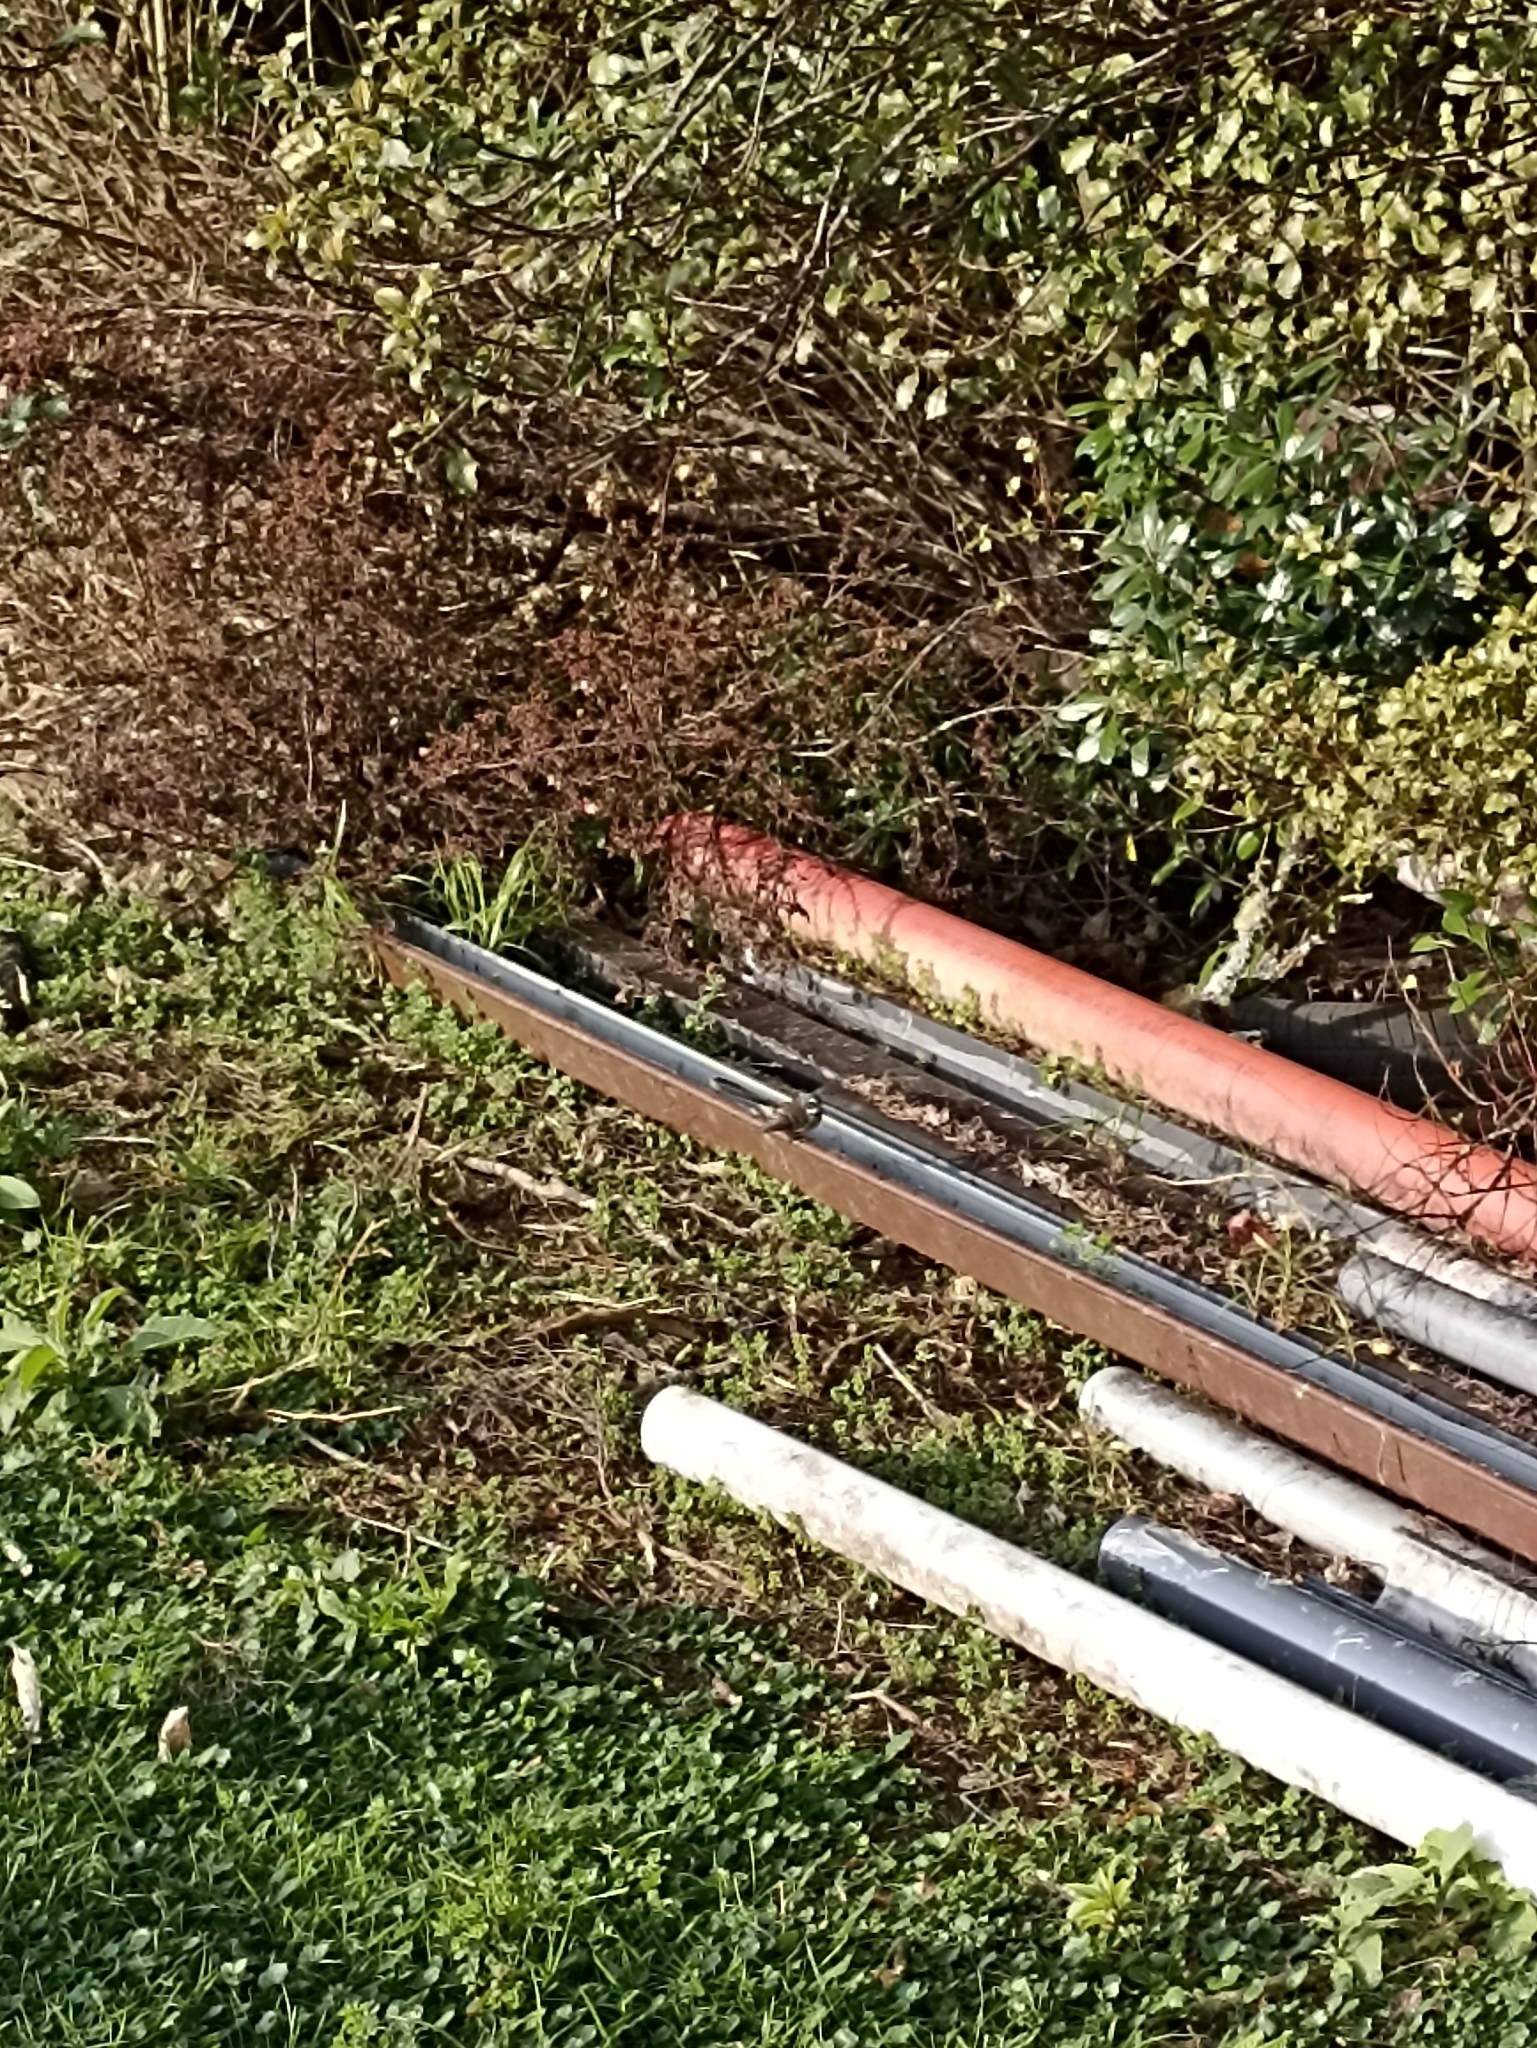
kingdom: Animalia
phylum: Chordata
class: Aves
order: Passeriformes
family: Rhipiduridae
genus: Rhipidura
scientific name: Rhipidura fuliginosa
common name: New zealand fantail
